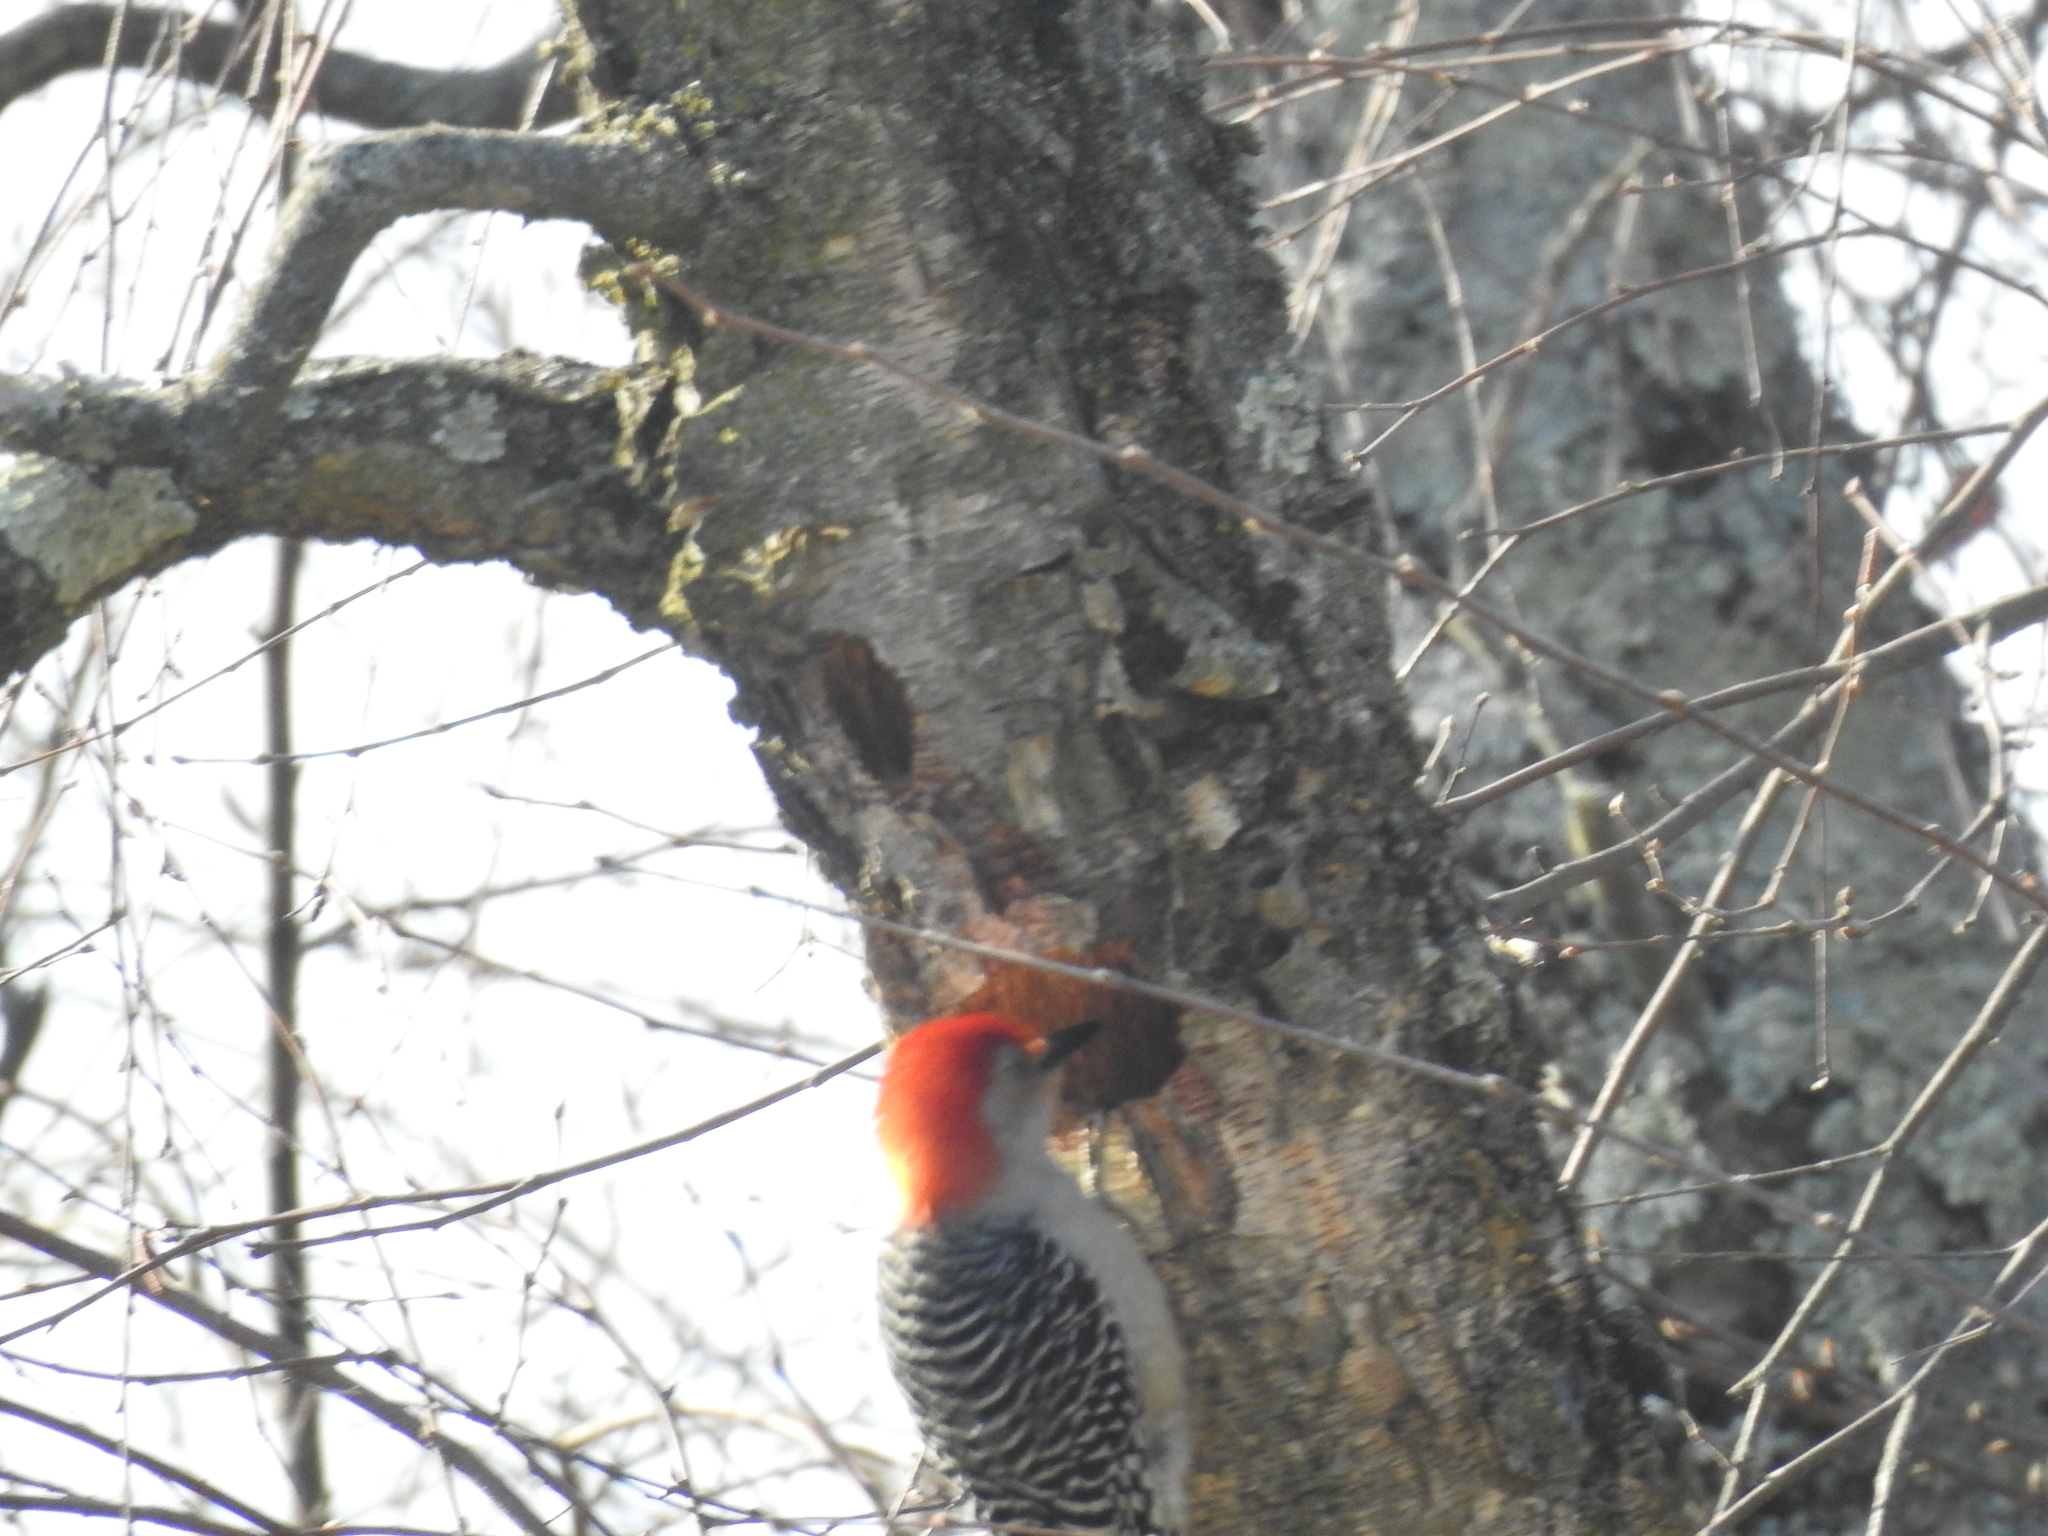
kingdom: Animalia
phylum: Chordata
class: Aves
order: Piciformes
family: Picidae
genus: Melanerpes
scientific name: Melanerpes carolinus
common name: Red-bellied woodpecker
